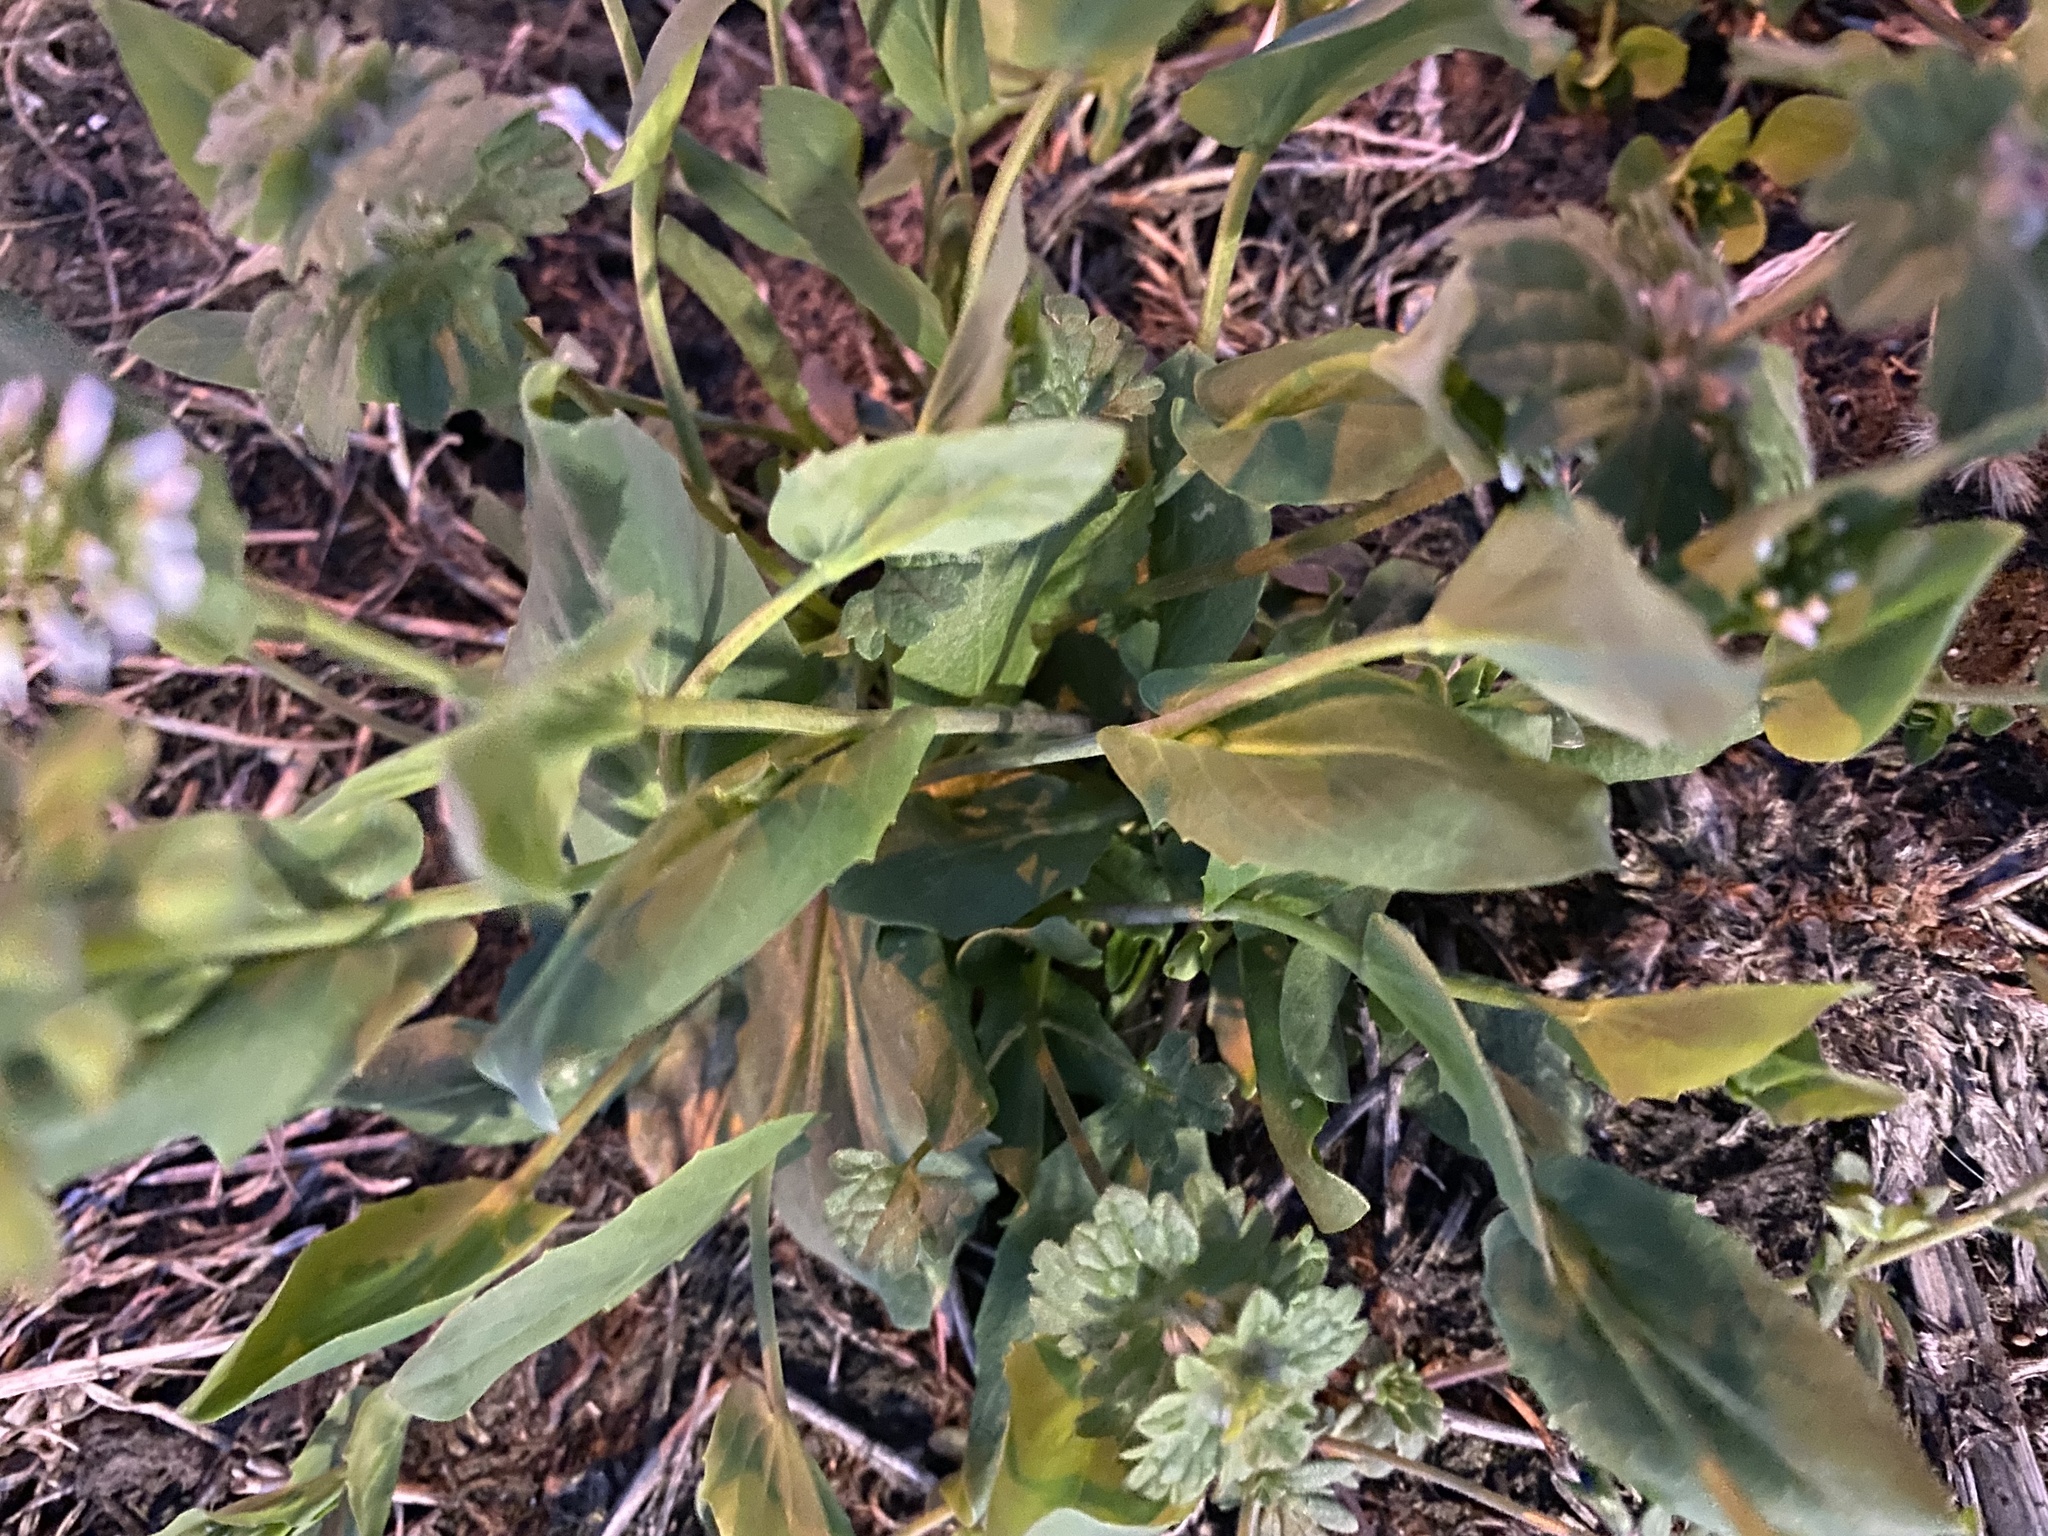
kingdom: Plantae
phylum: Tracheophyta
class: Magnoliopsida
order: Brassicales
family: Brassicaceae
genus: Noccaea
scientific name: Noccaea perfoliata
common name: Perfoliate pennycress
